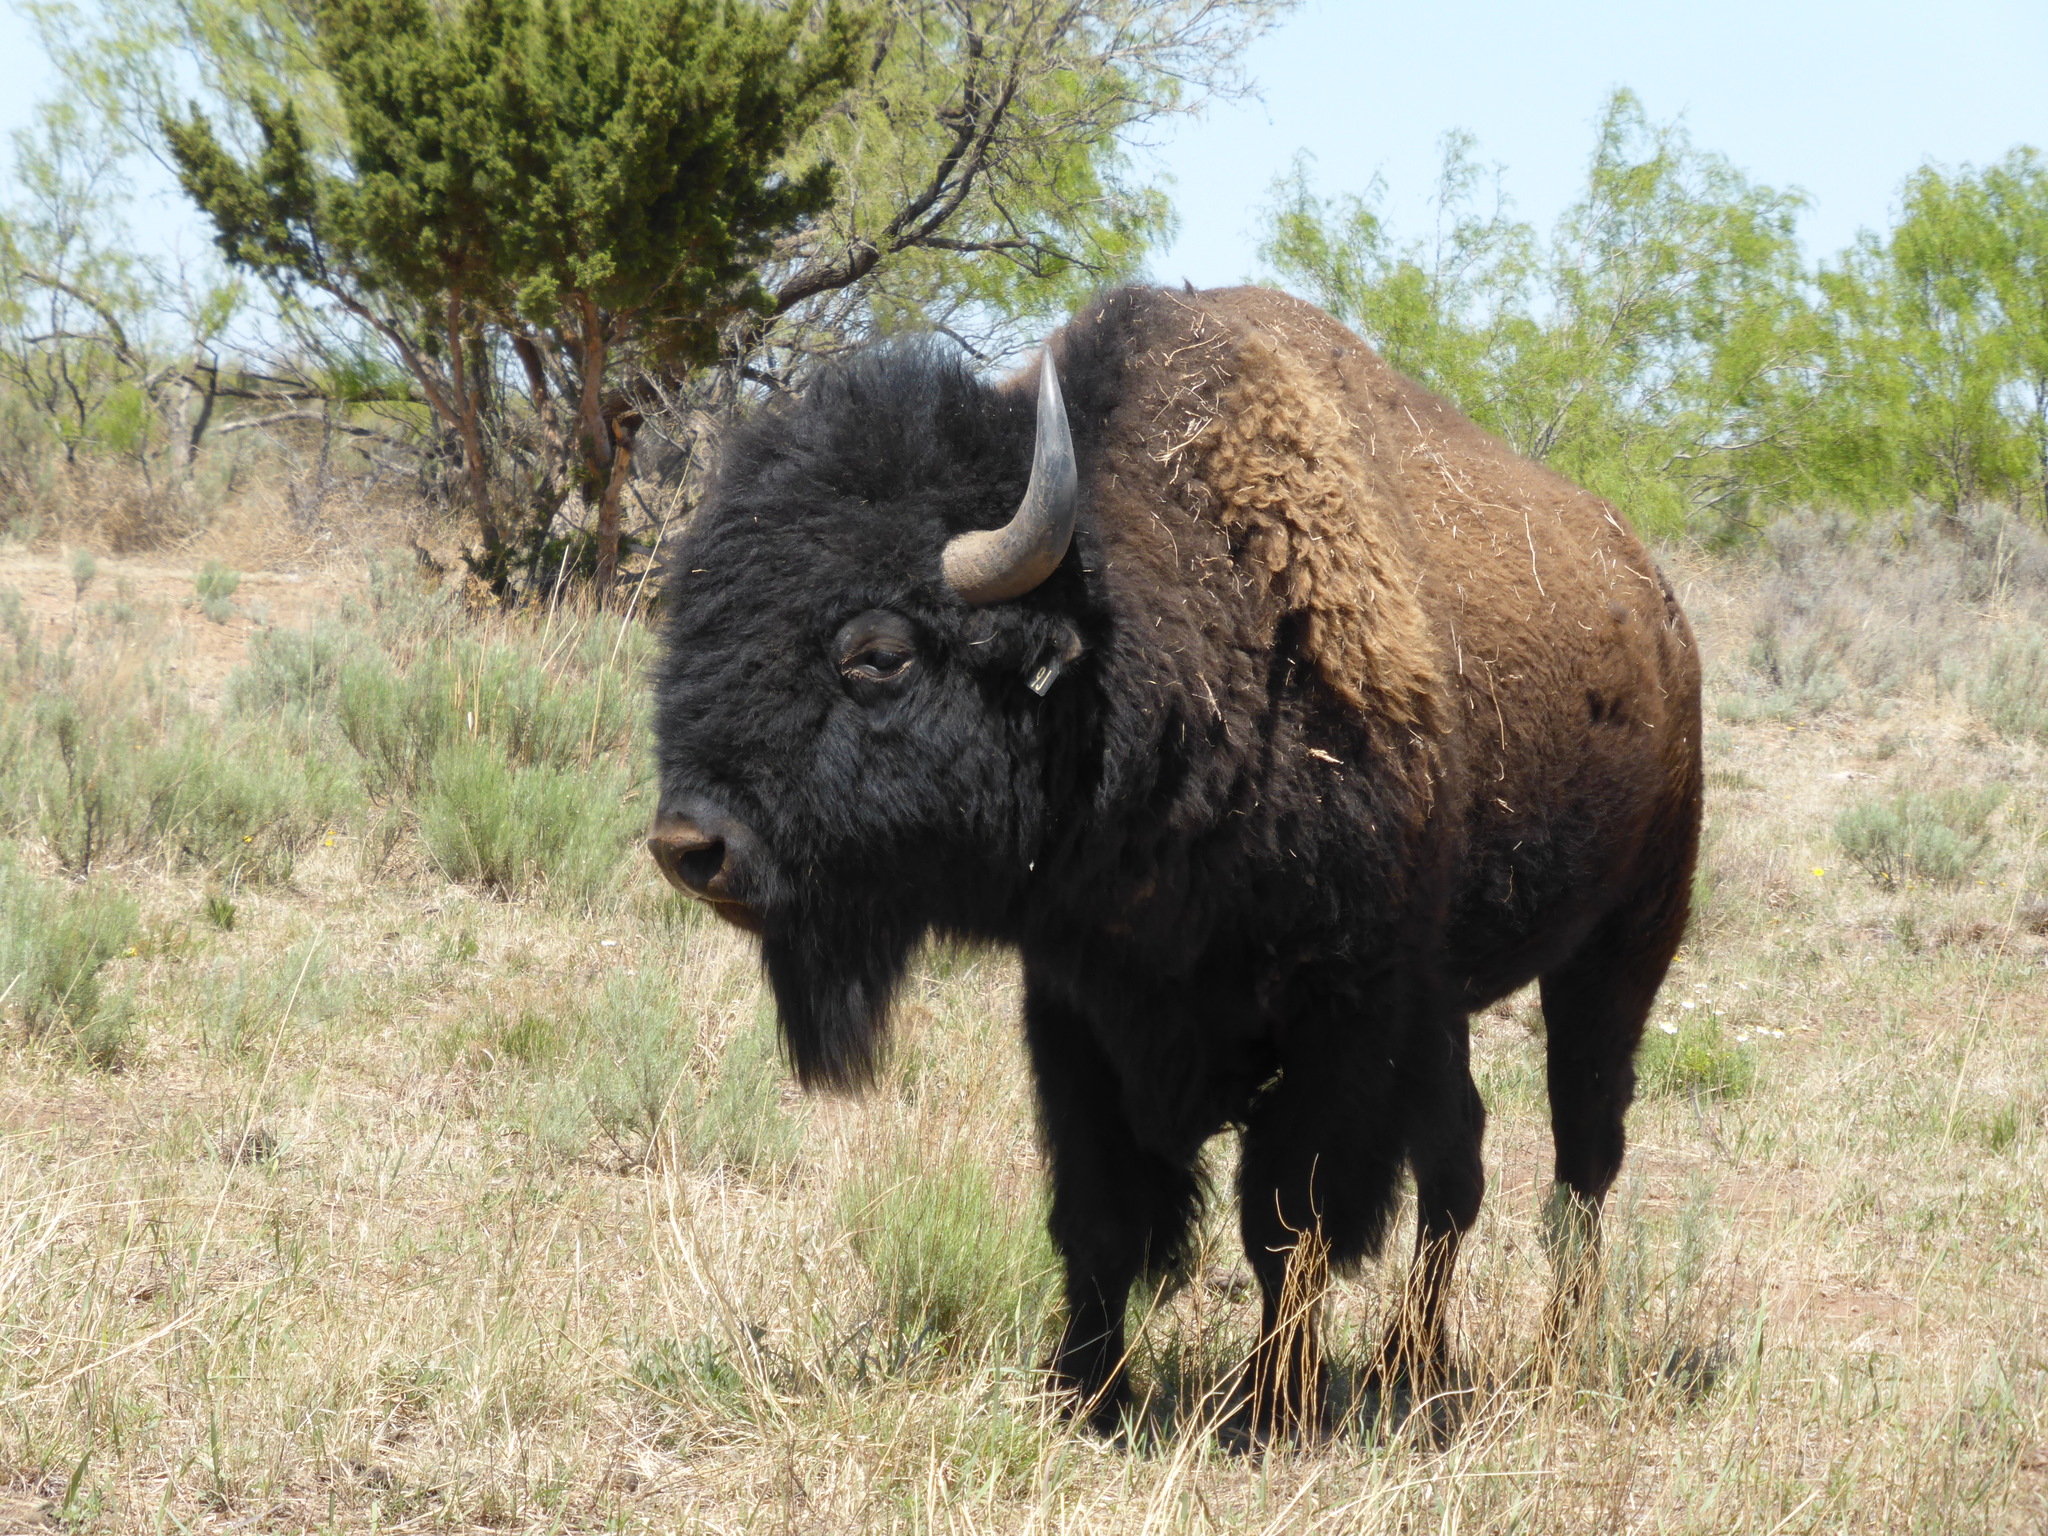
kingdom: Animalia
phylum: Chordata
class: Mammalia
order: Artiodactyla
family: Bovidae
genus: Bison
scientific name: Bison bison
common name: American bison
